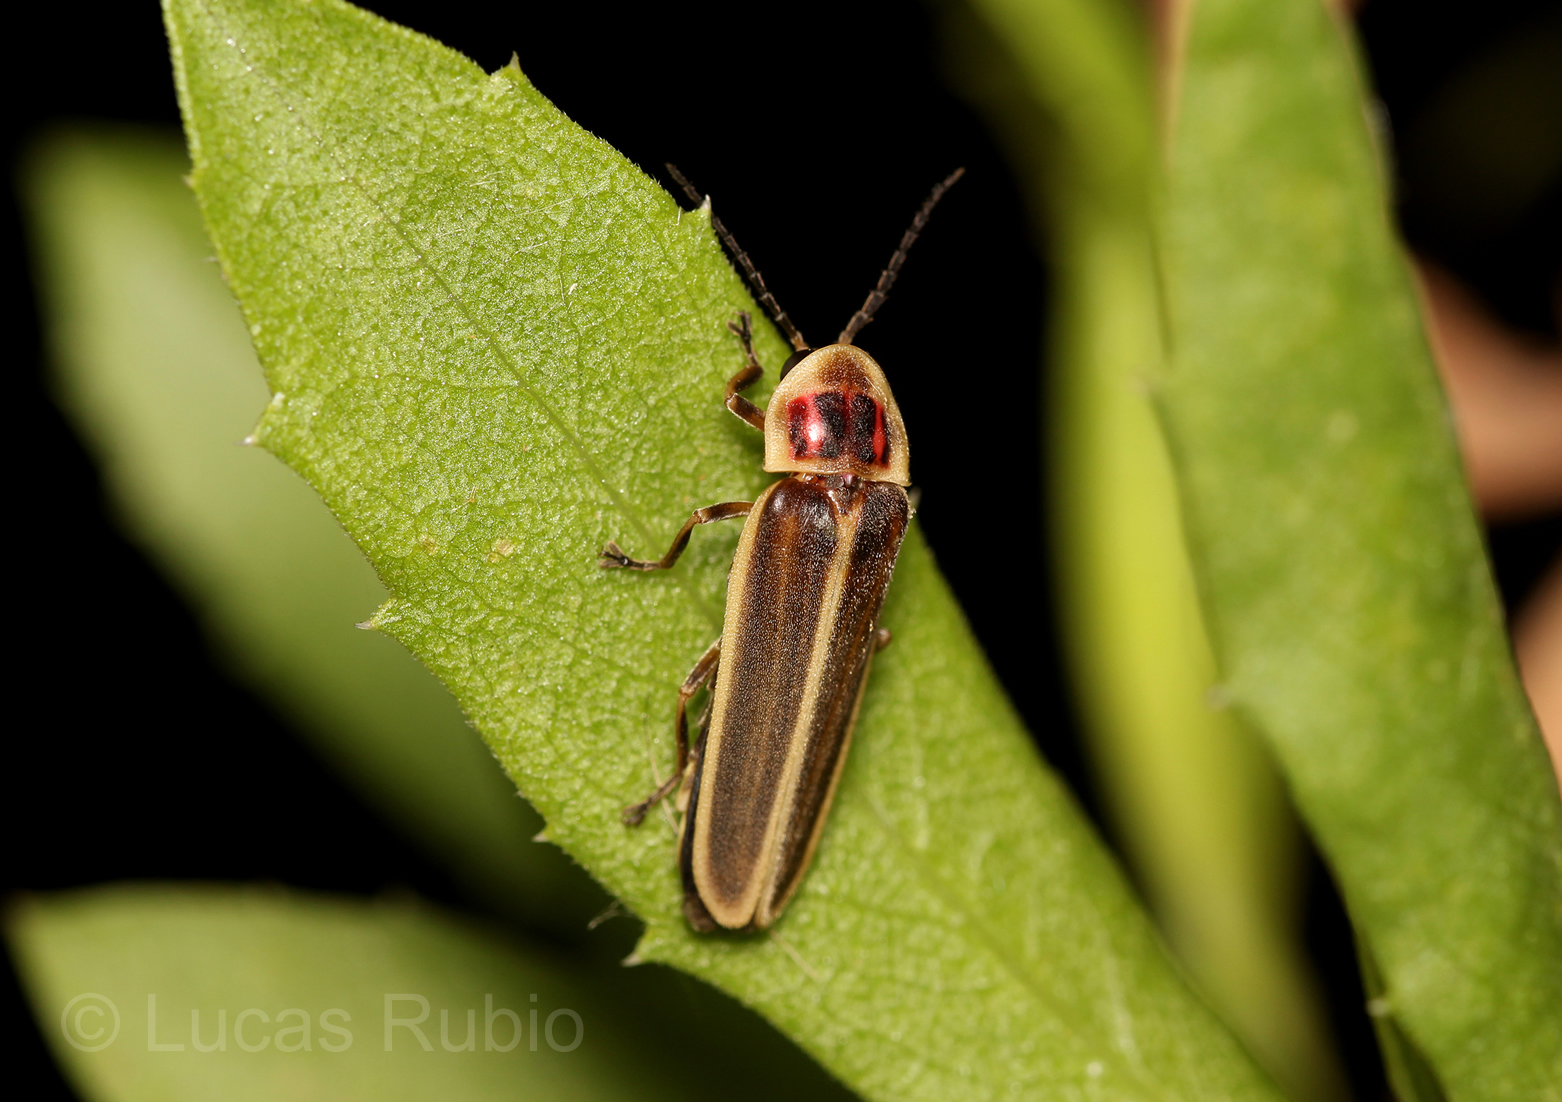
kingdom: Animalia
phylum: Arthropoda
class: Insecta
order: Coleoptera
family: Lampyridae
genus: Photinus
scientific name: Photinus signaticollis
